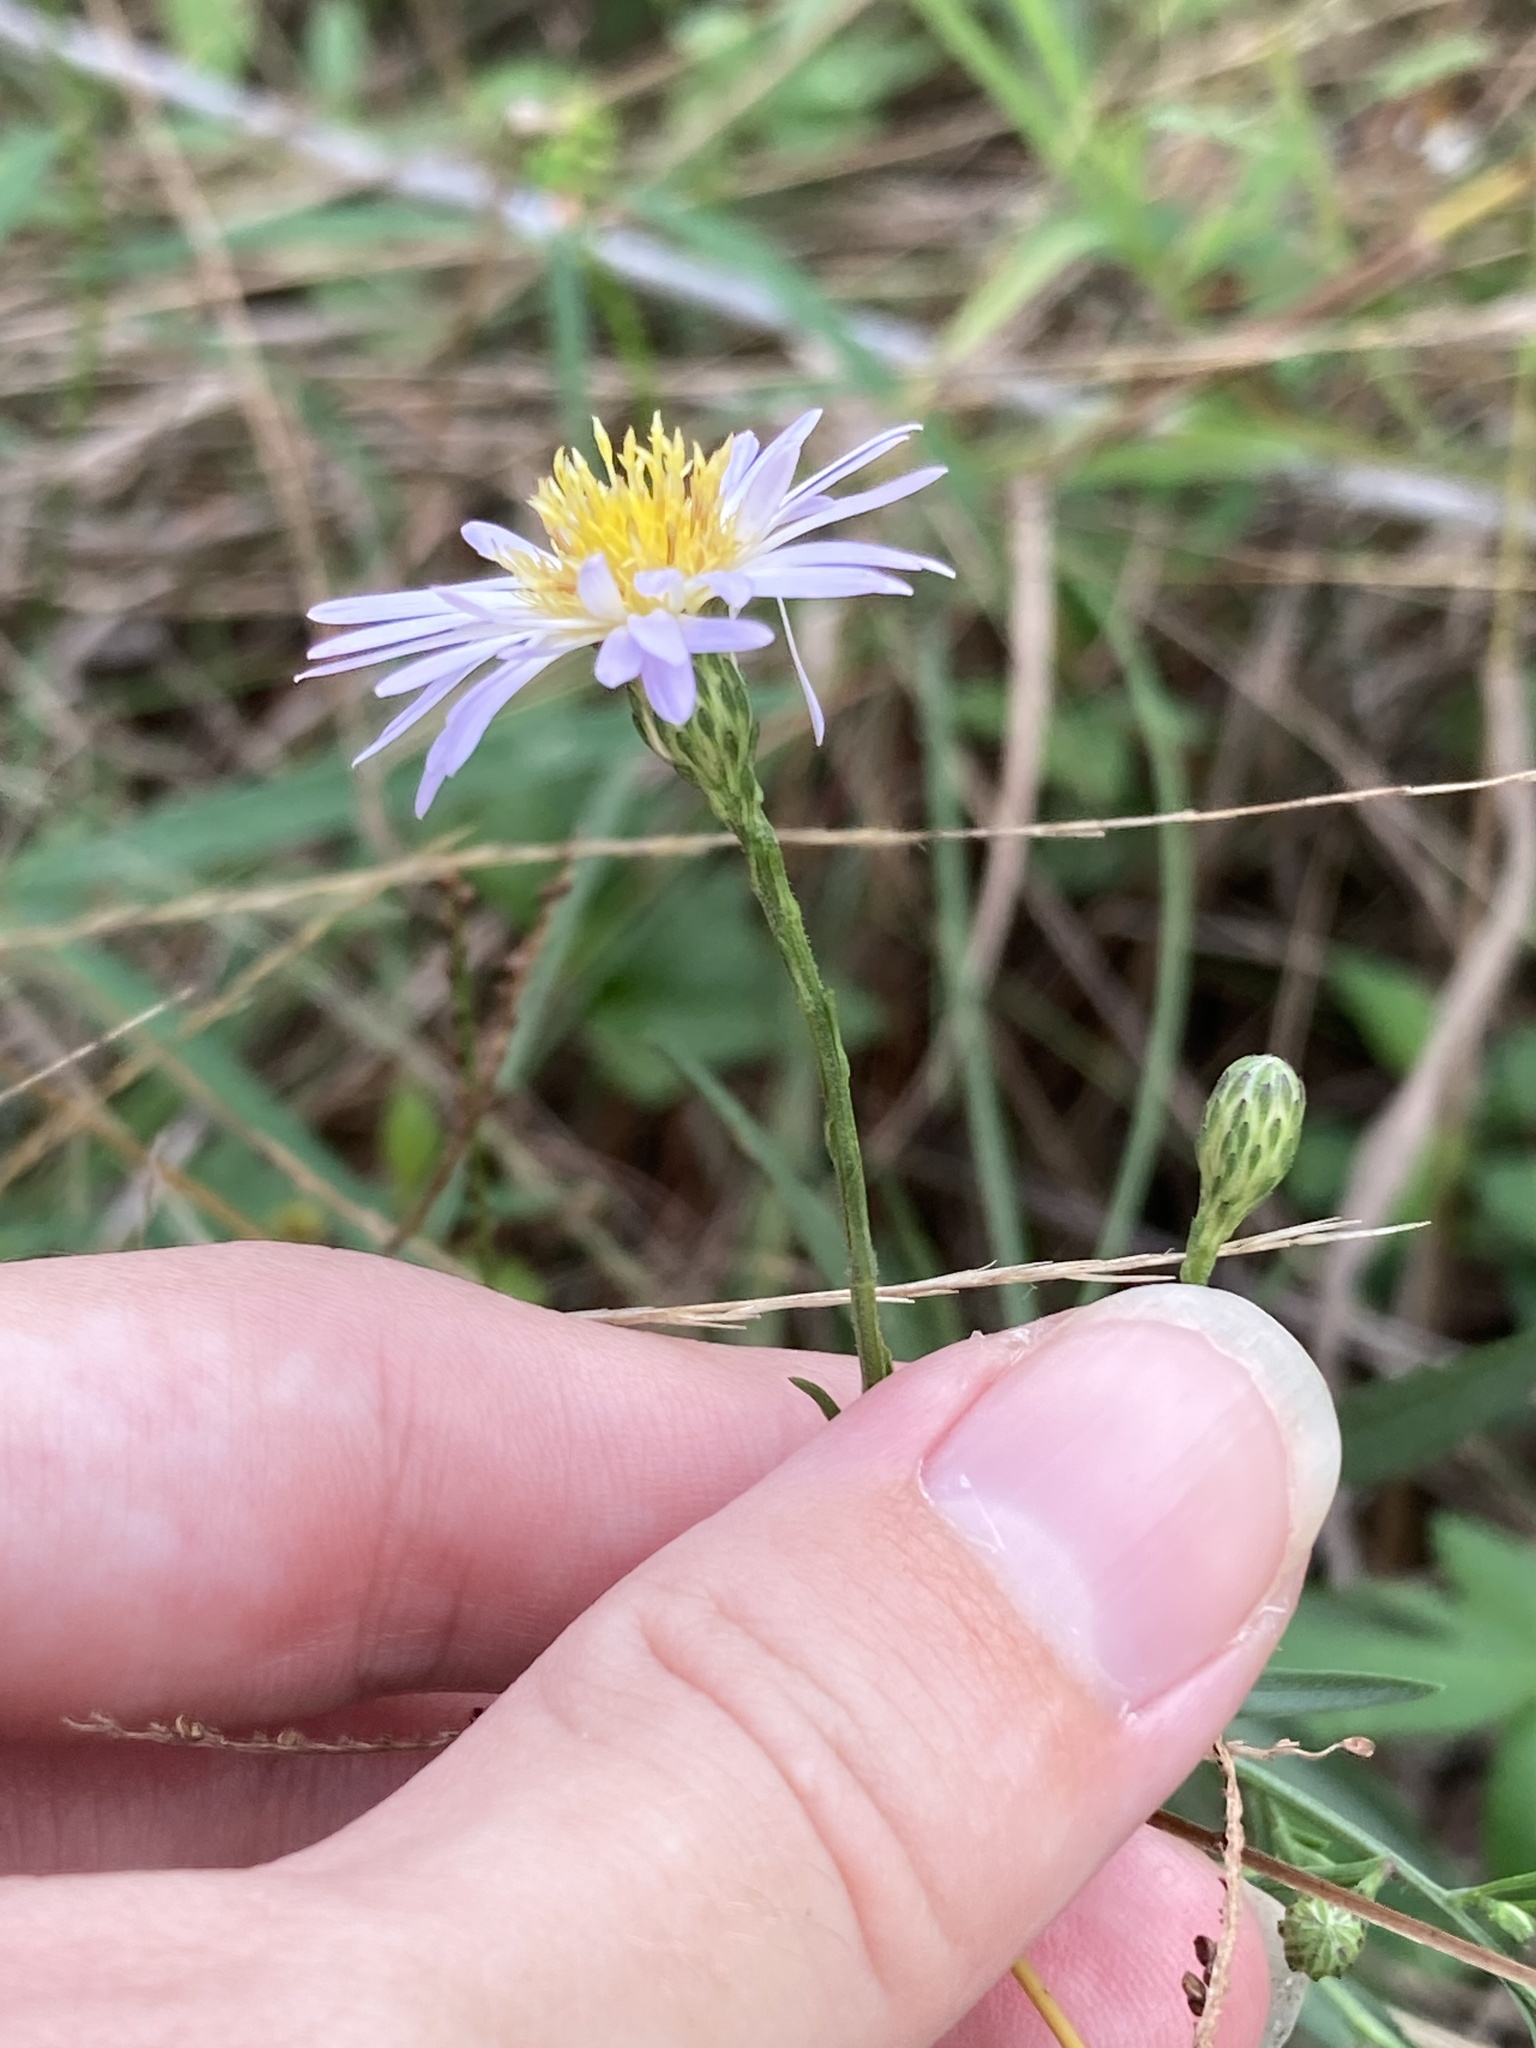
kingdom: Plantae
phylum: Tracheophyta
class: Magnoliopsida
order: Asterales
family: Asteraceae
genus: Symphyotrichum
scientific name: Symphyotrichum simmondsii
